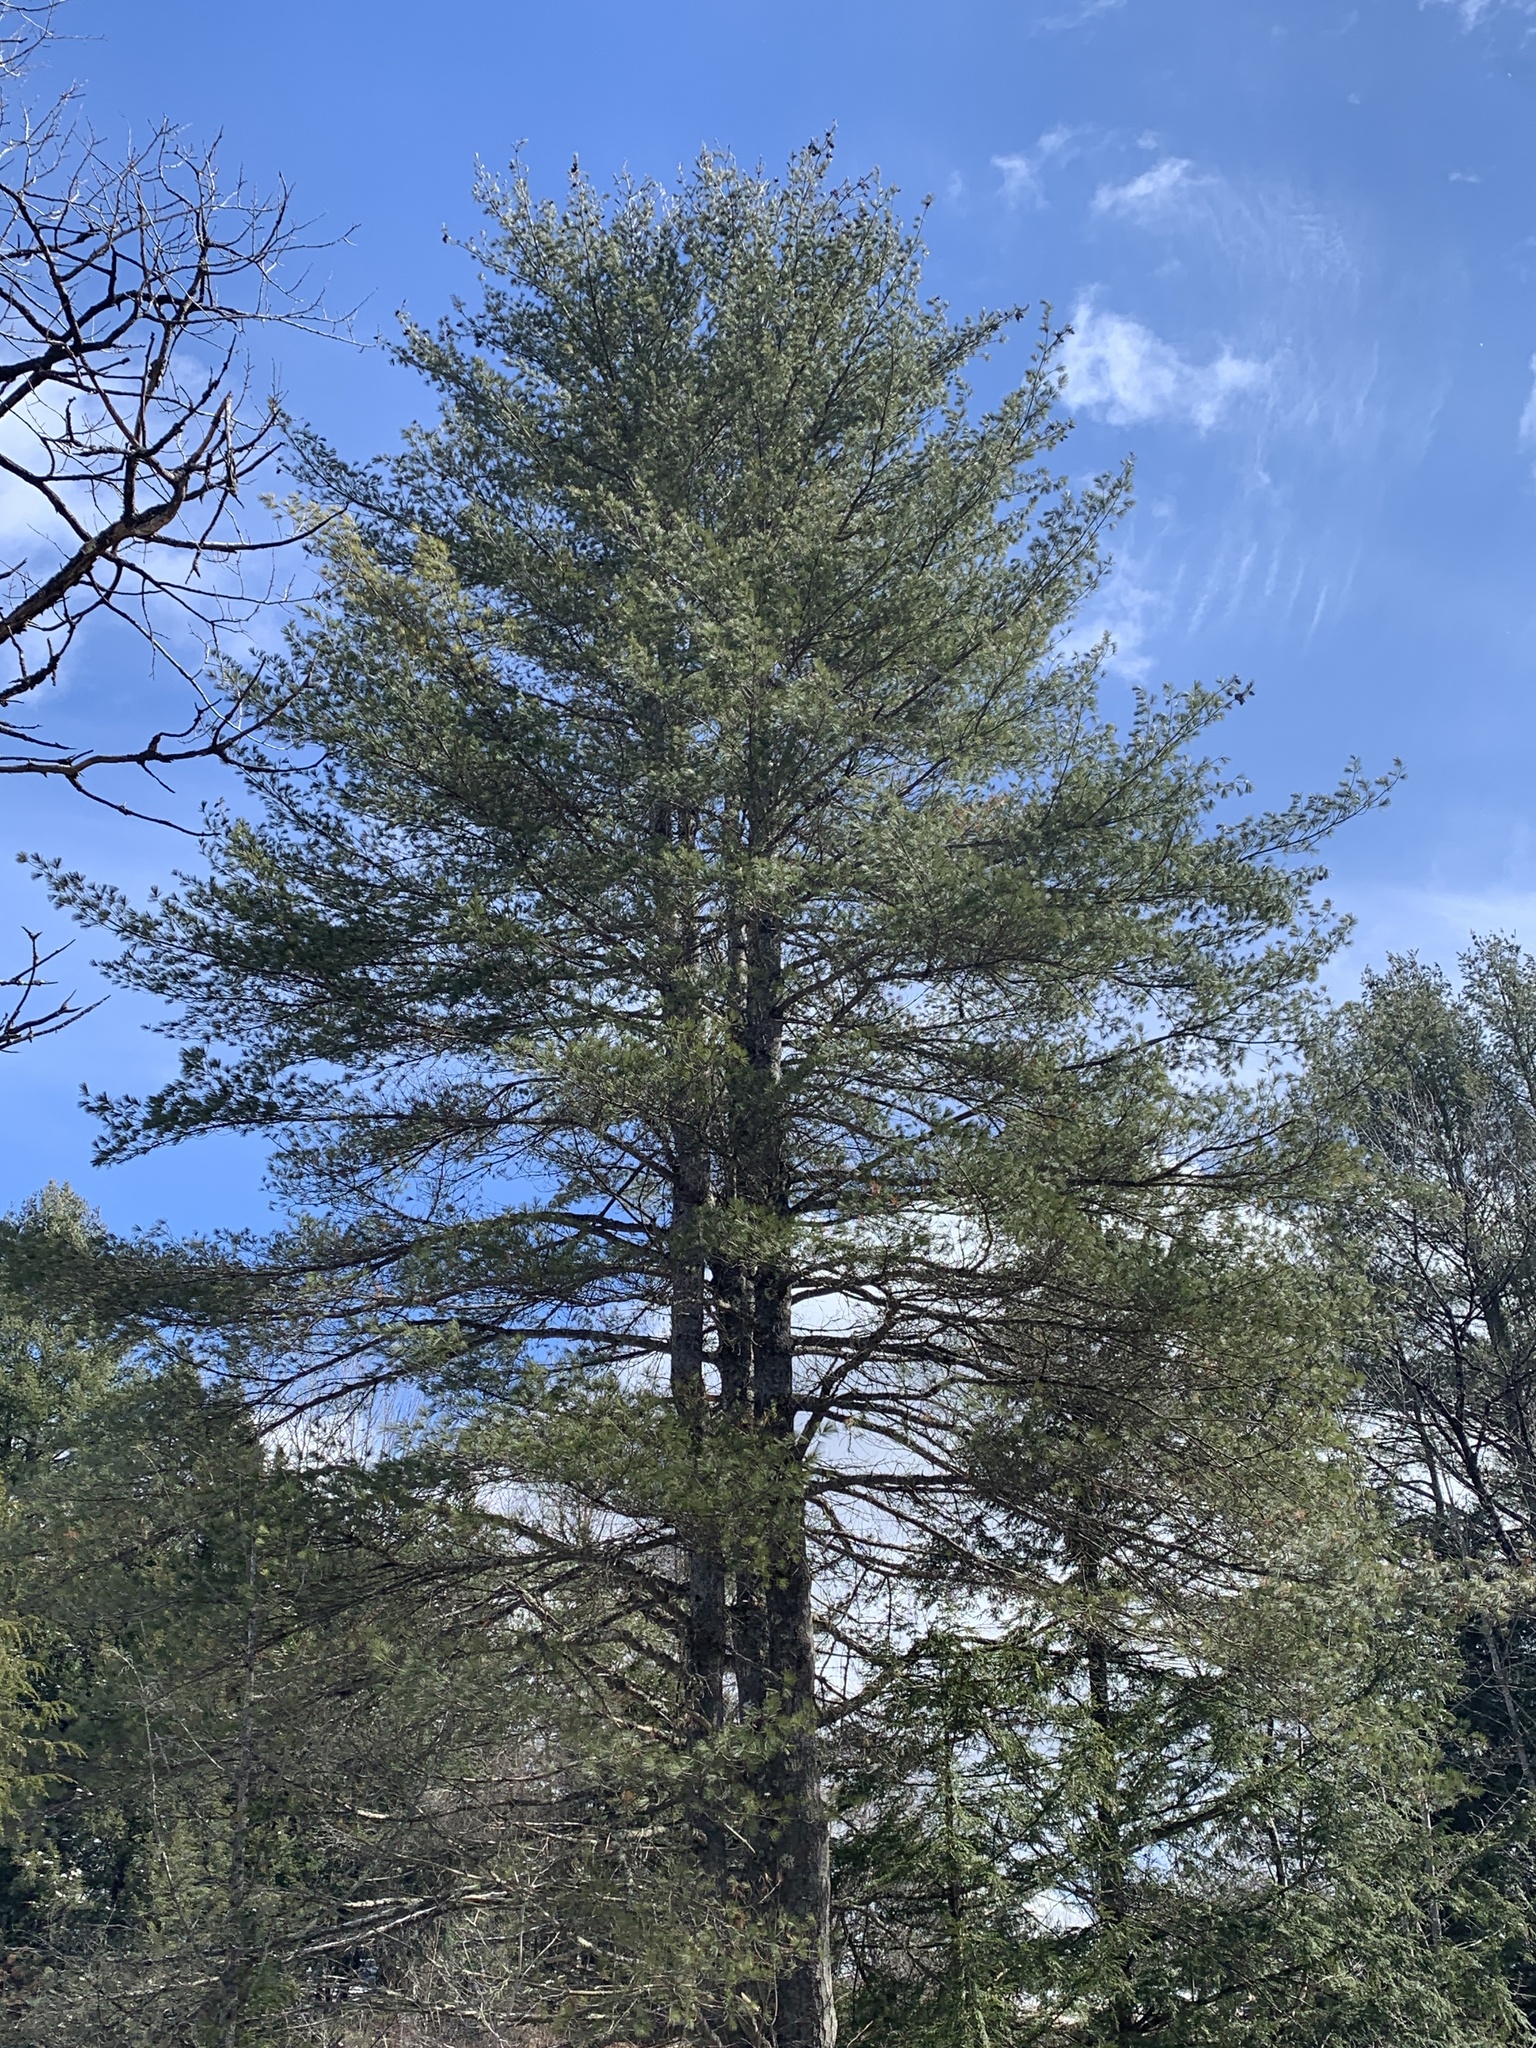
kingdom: Plantae
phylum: Tracheophyta
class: Pinopsida
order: Pinales
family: Pinaceae
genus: Pinus
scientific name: Pinus strobus
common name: Weymouth pine
